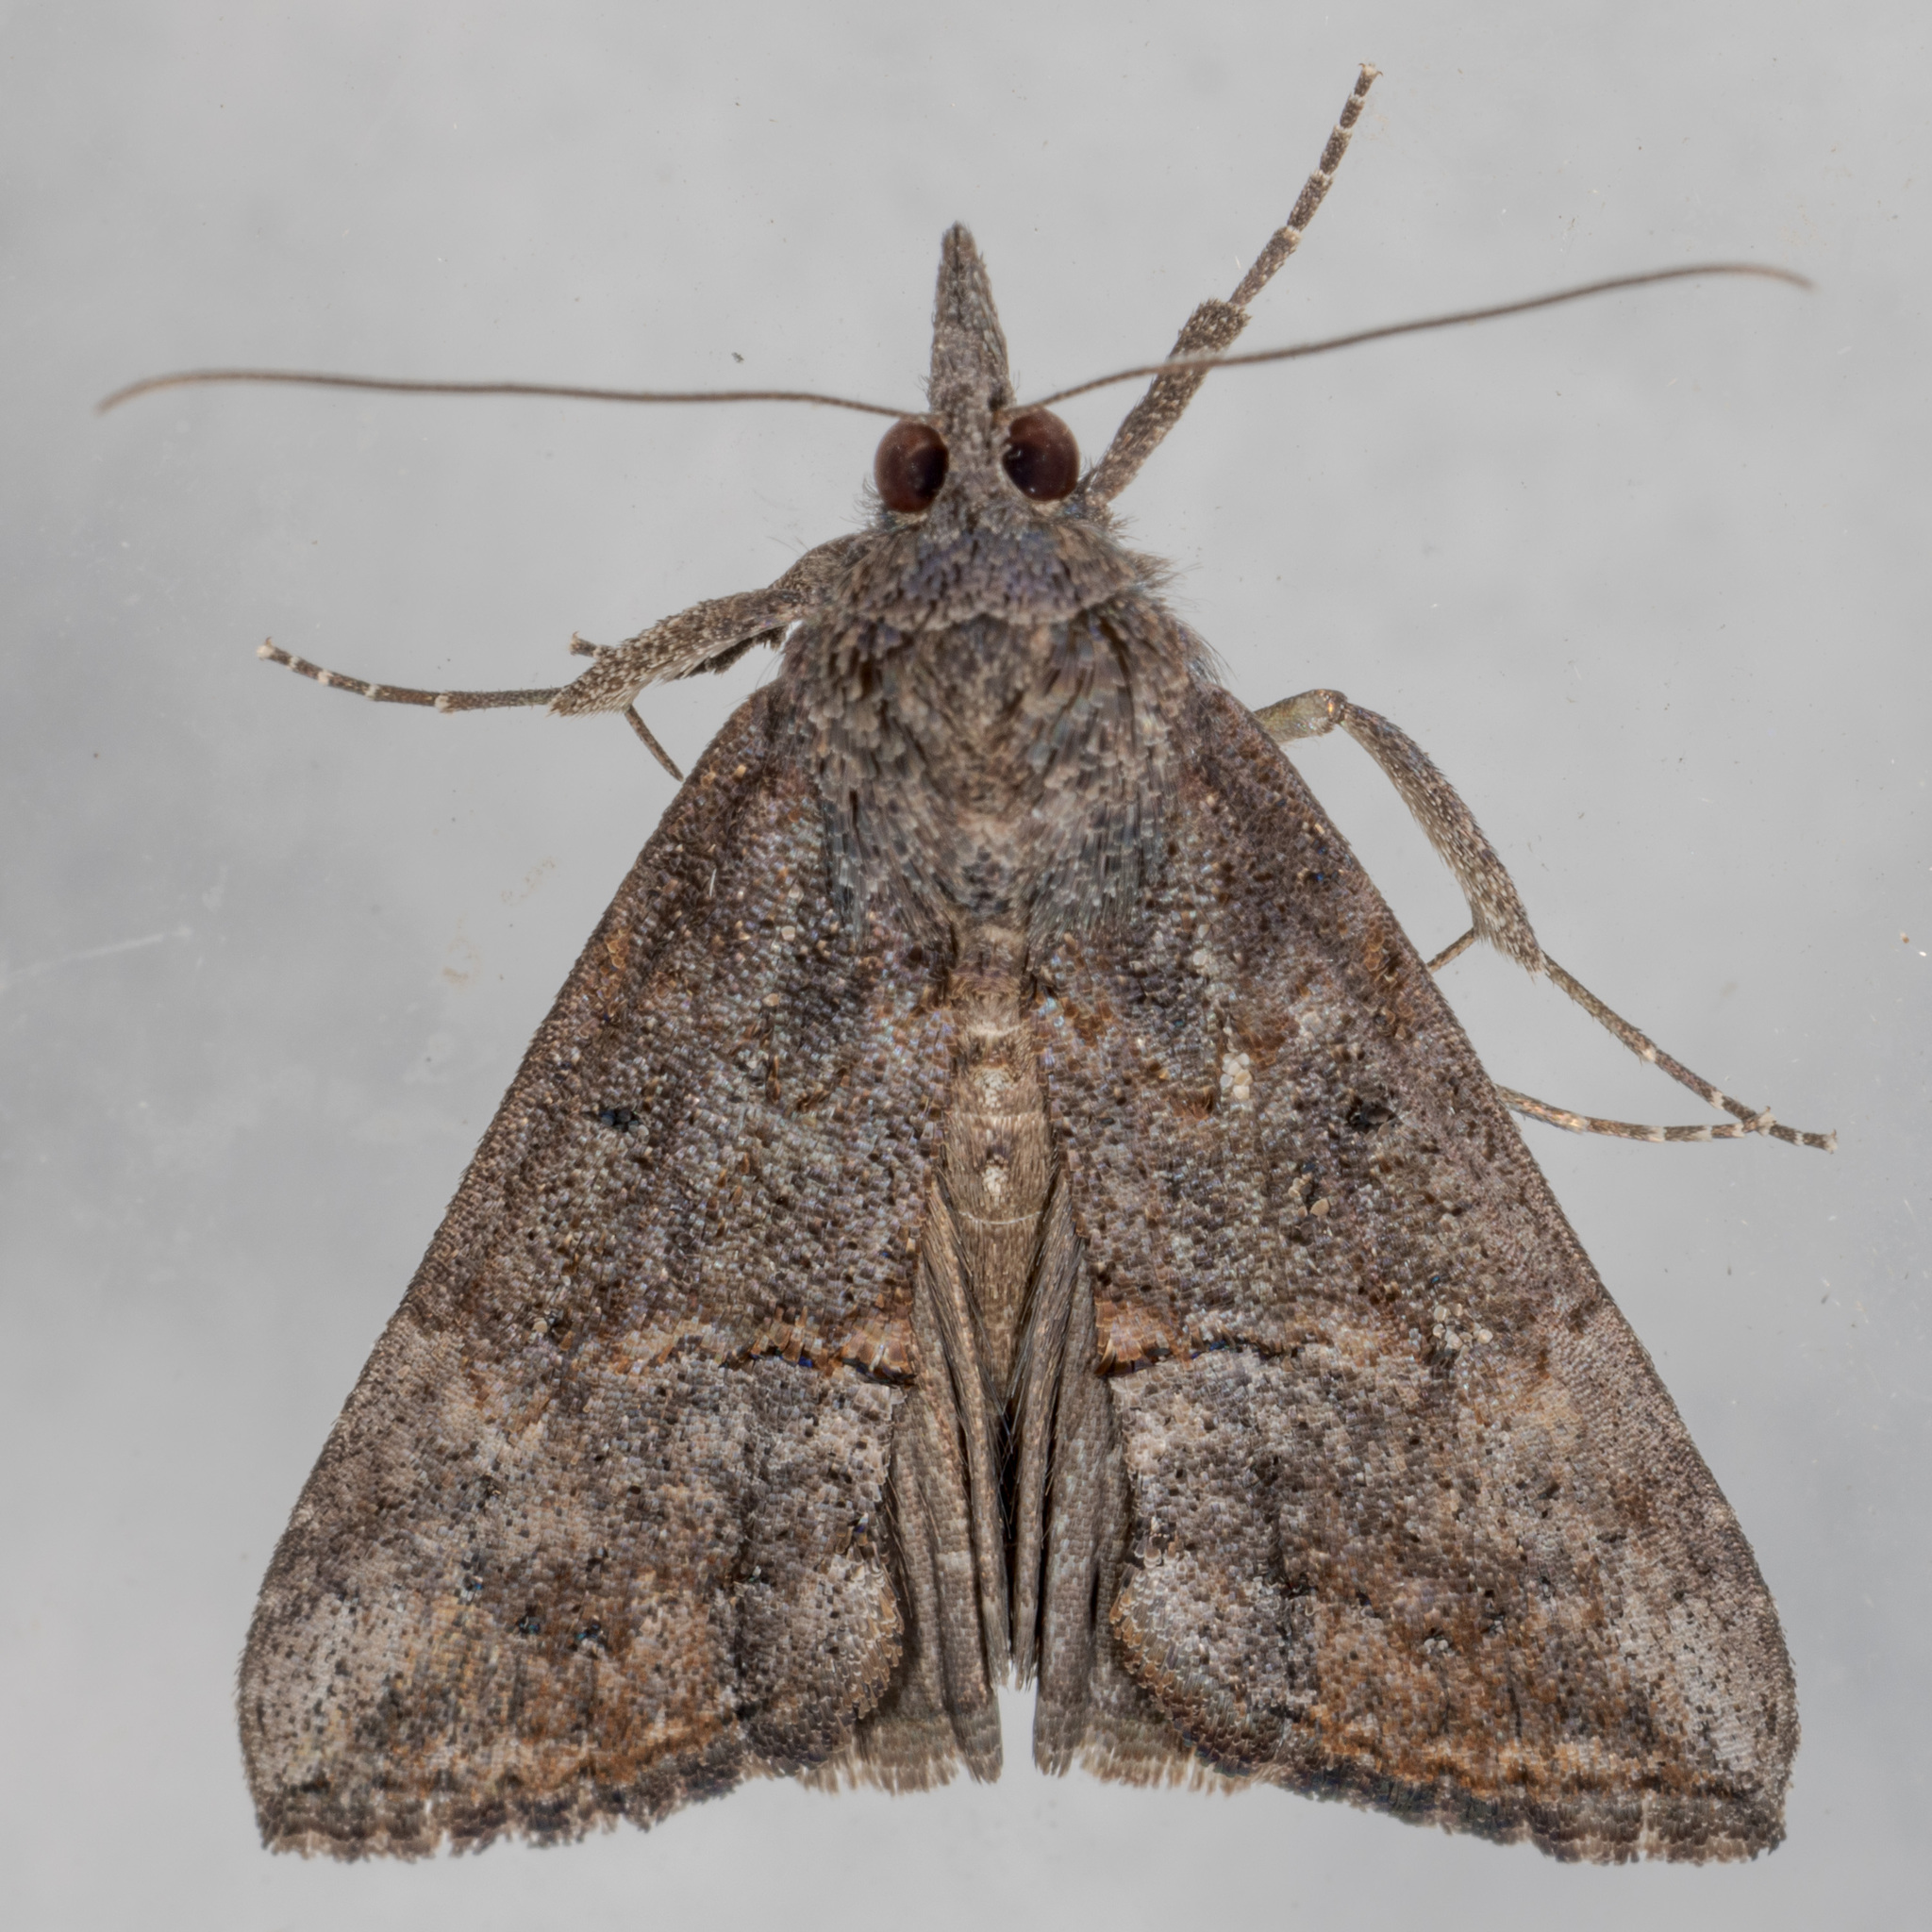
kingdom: Animalia
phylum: Arthropoda
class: Insecta
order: Lepidoptera
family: Erebidae
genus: Hypena
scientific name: Hypena scabra
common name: Green cloverworm
